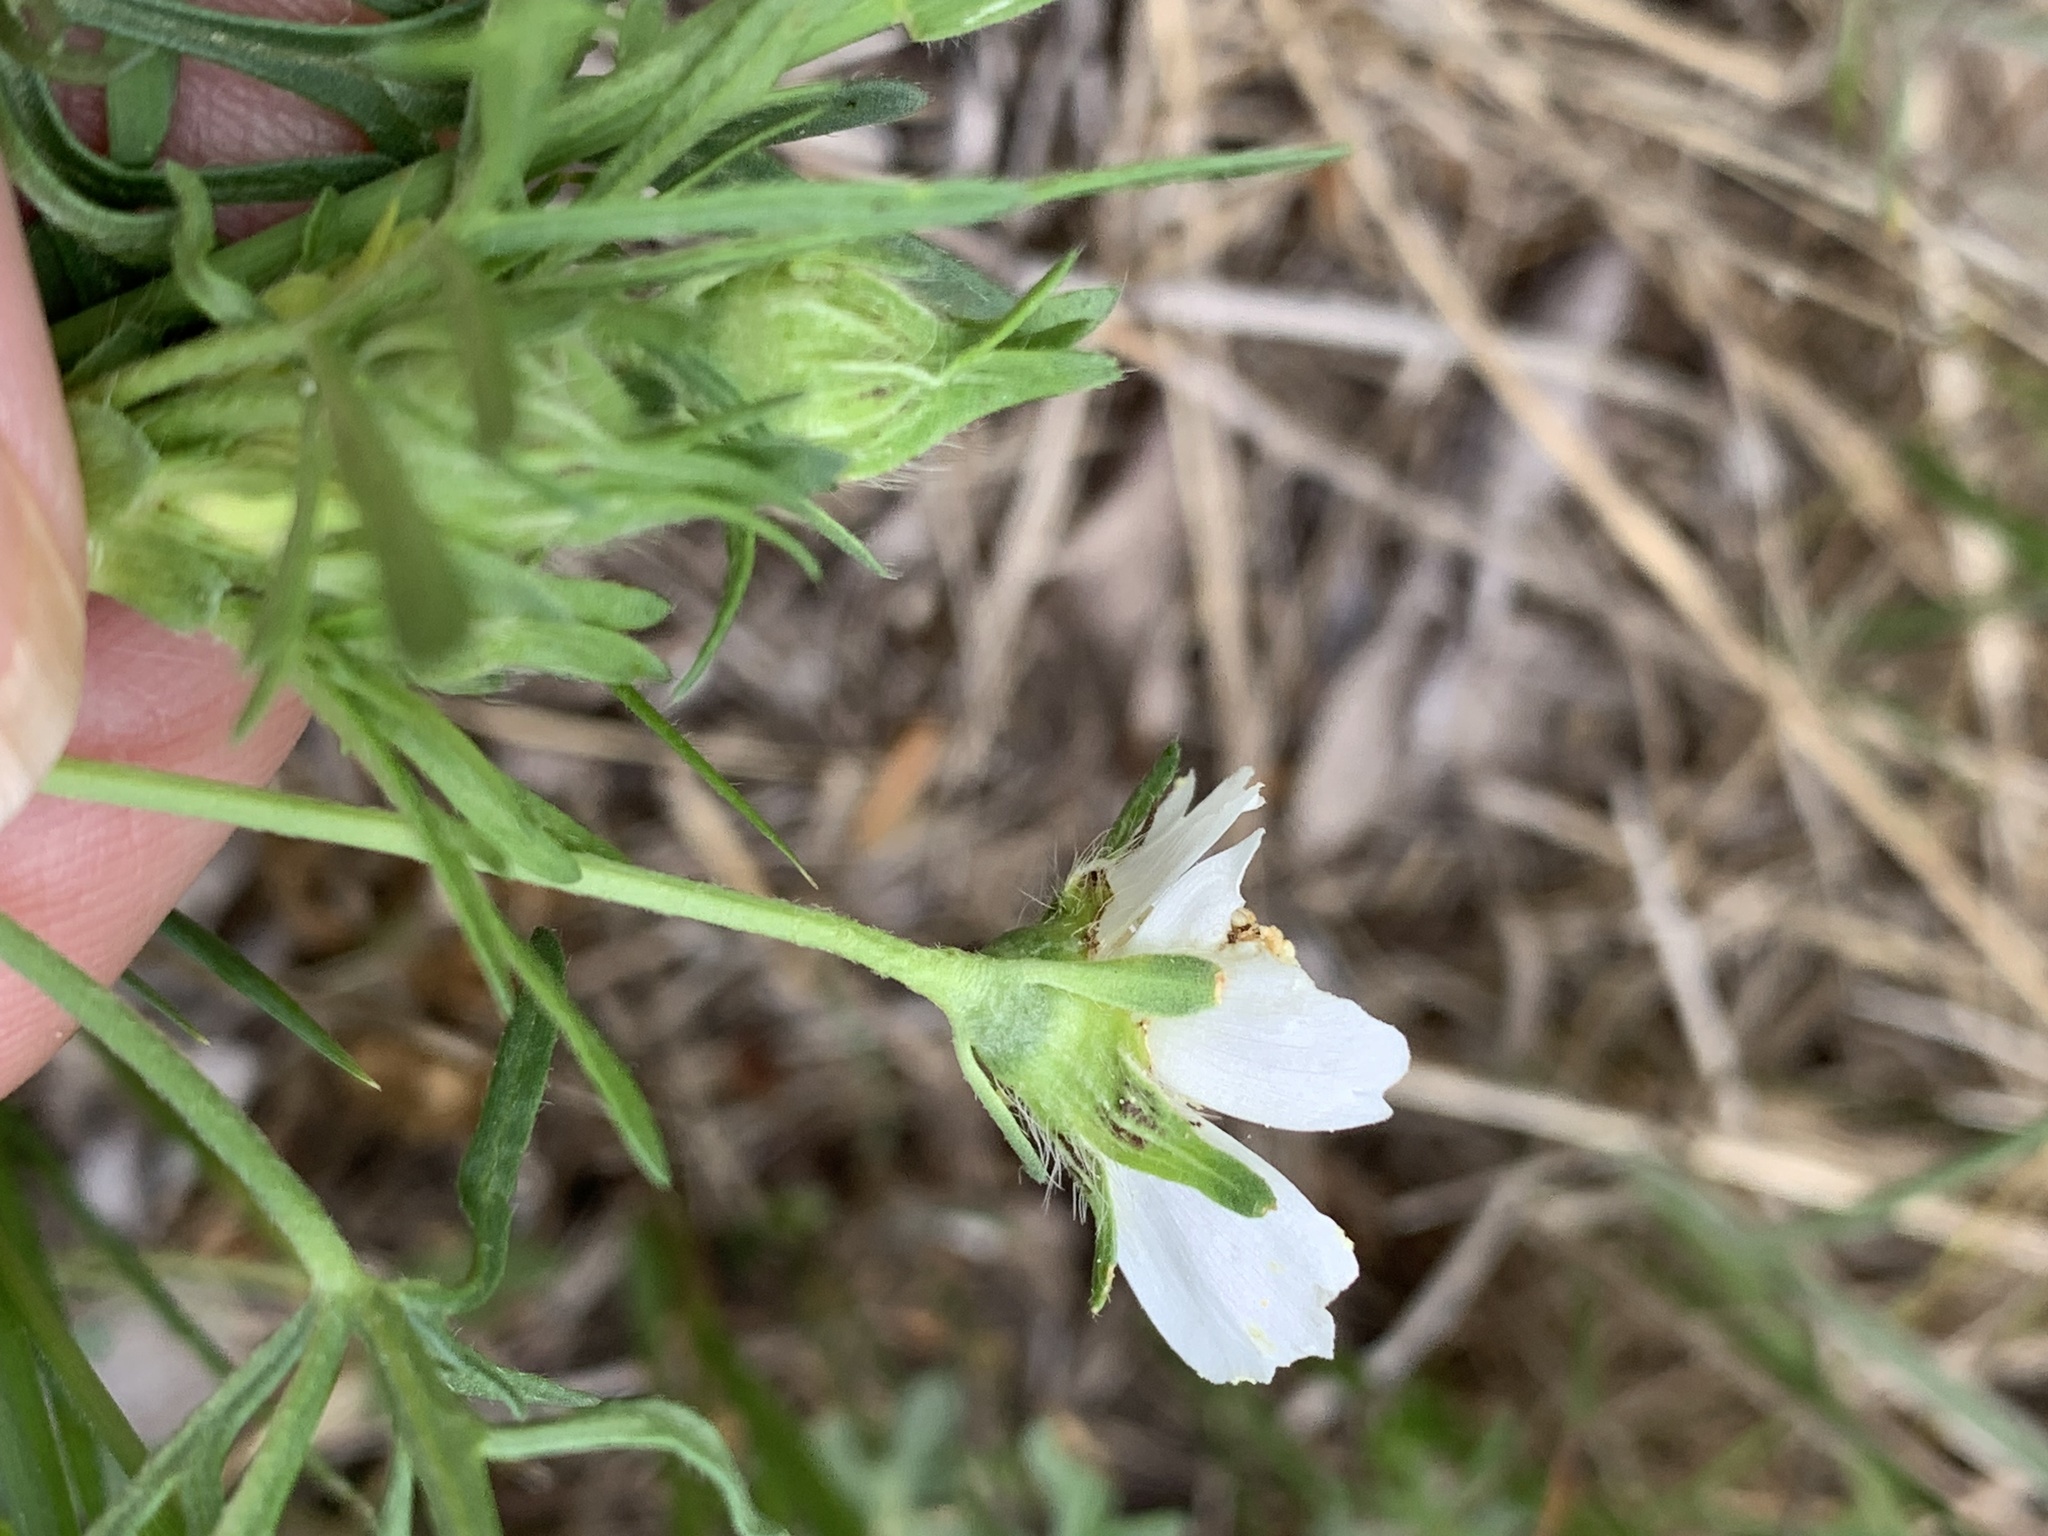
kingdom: Plantae
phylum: Tracheophyta
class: Magnoliopsida
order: Malvales
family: Malvaceae
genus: Callirhoe
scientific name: Callirhoe involucrata
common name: Purple poppy-mallow
